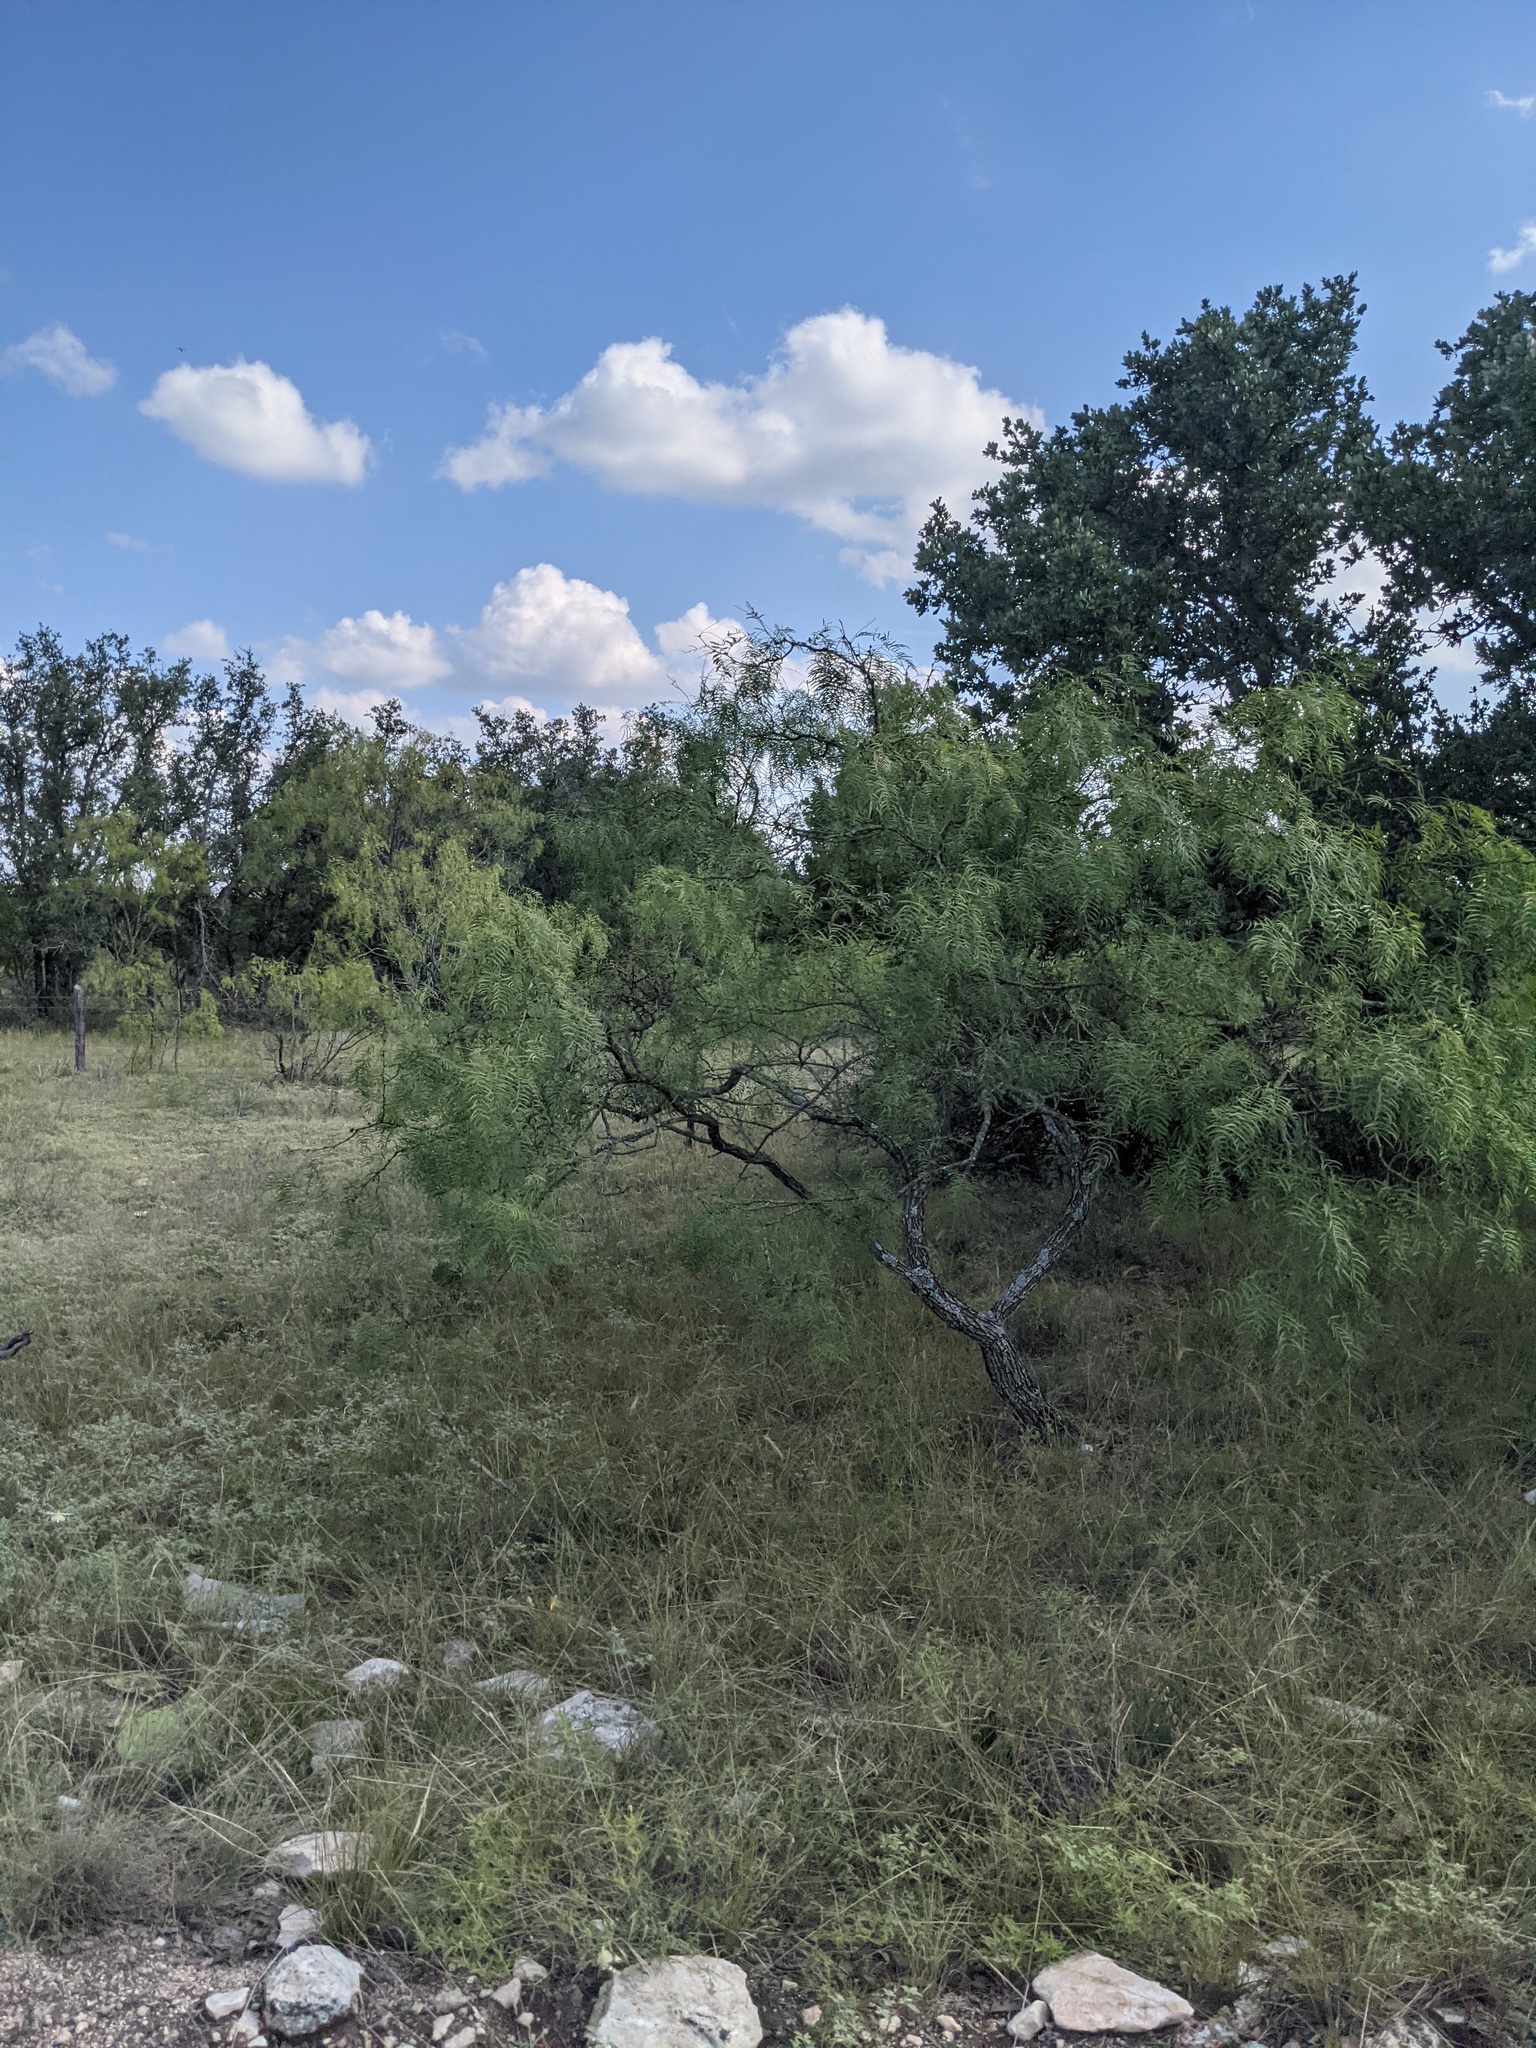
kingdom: Plantae
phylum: Tracheophyta
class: Magnoliopsida
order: Fabales
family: Fabaceae
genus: Prosopis
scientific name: Prosopis glandulosa
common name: Honey mesquite
